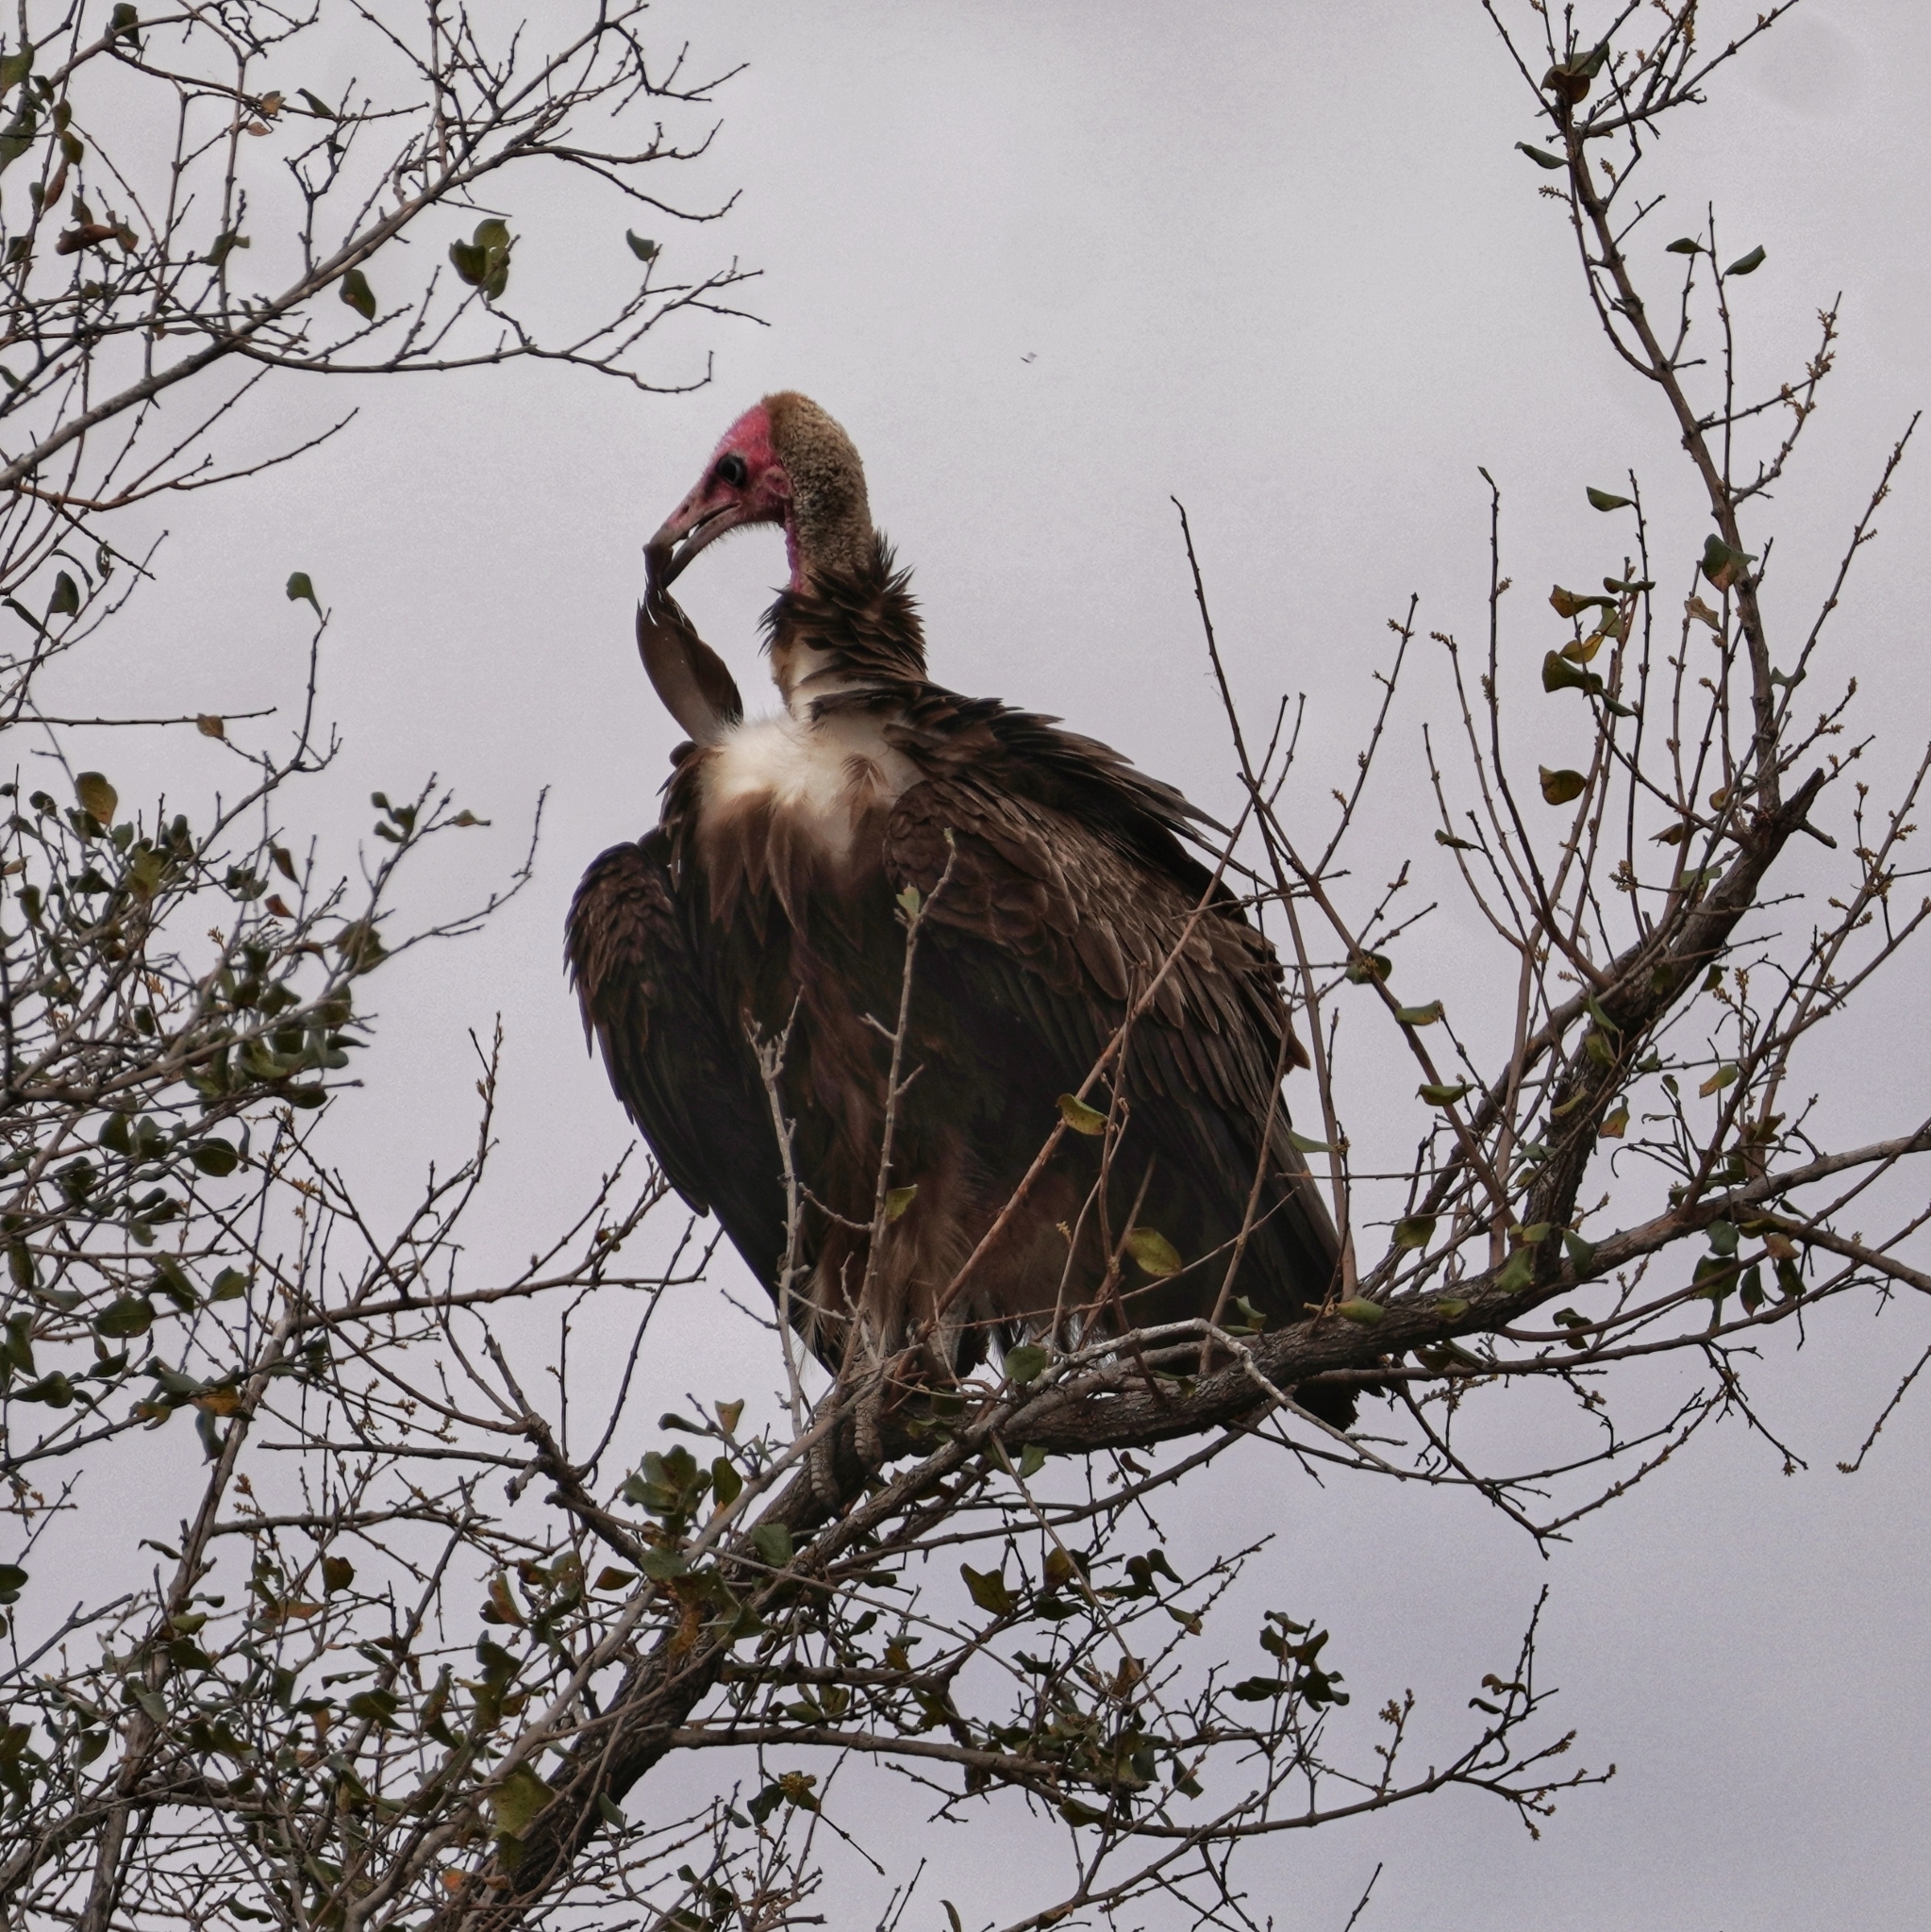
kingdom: Animalia
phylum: Chordata
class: Aves
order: Accipitriformes
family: Accipitridae
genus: Necrosyrtes
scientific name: Necrosyrtes monachus
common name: Hooded vulture
